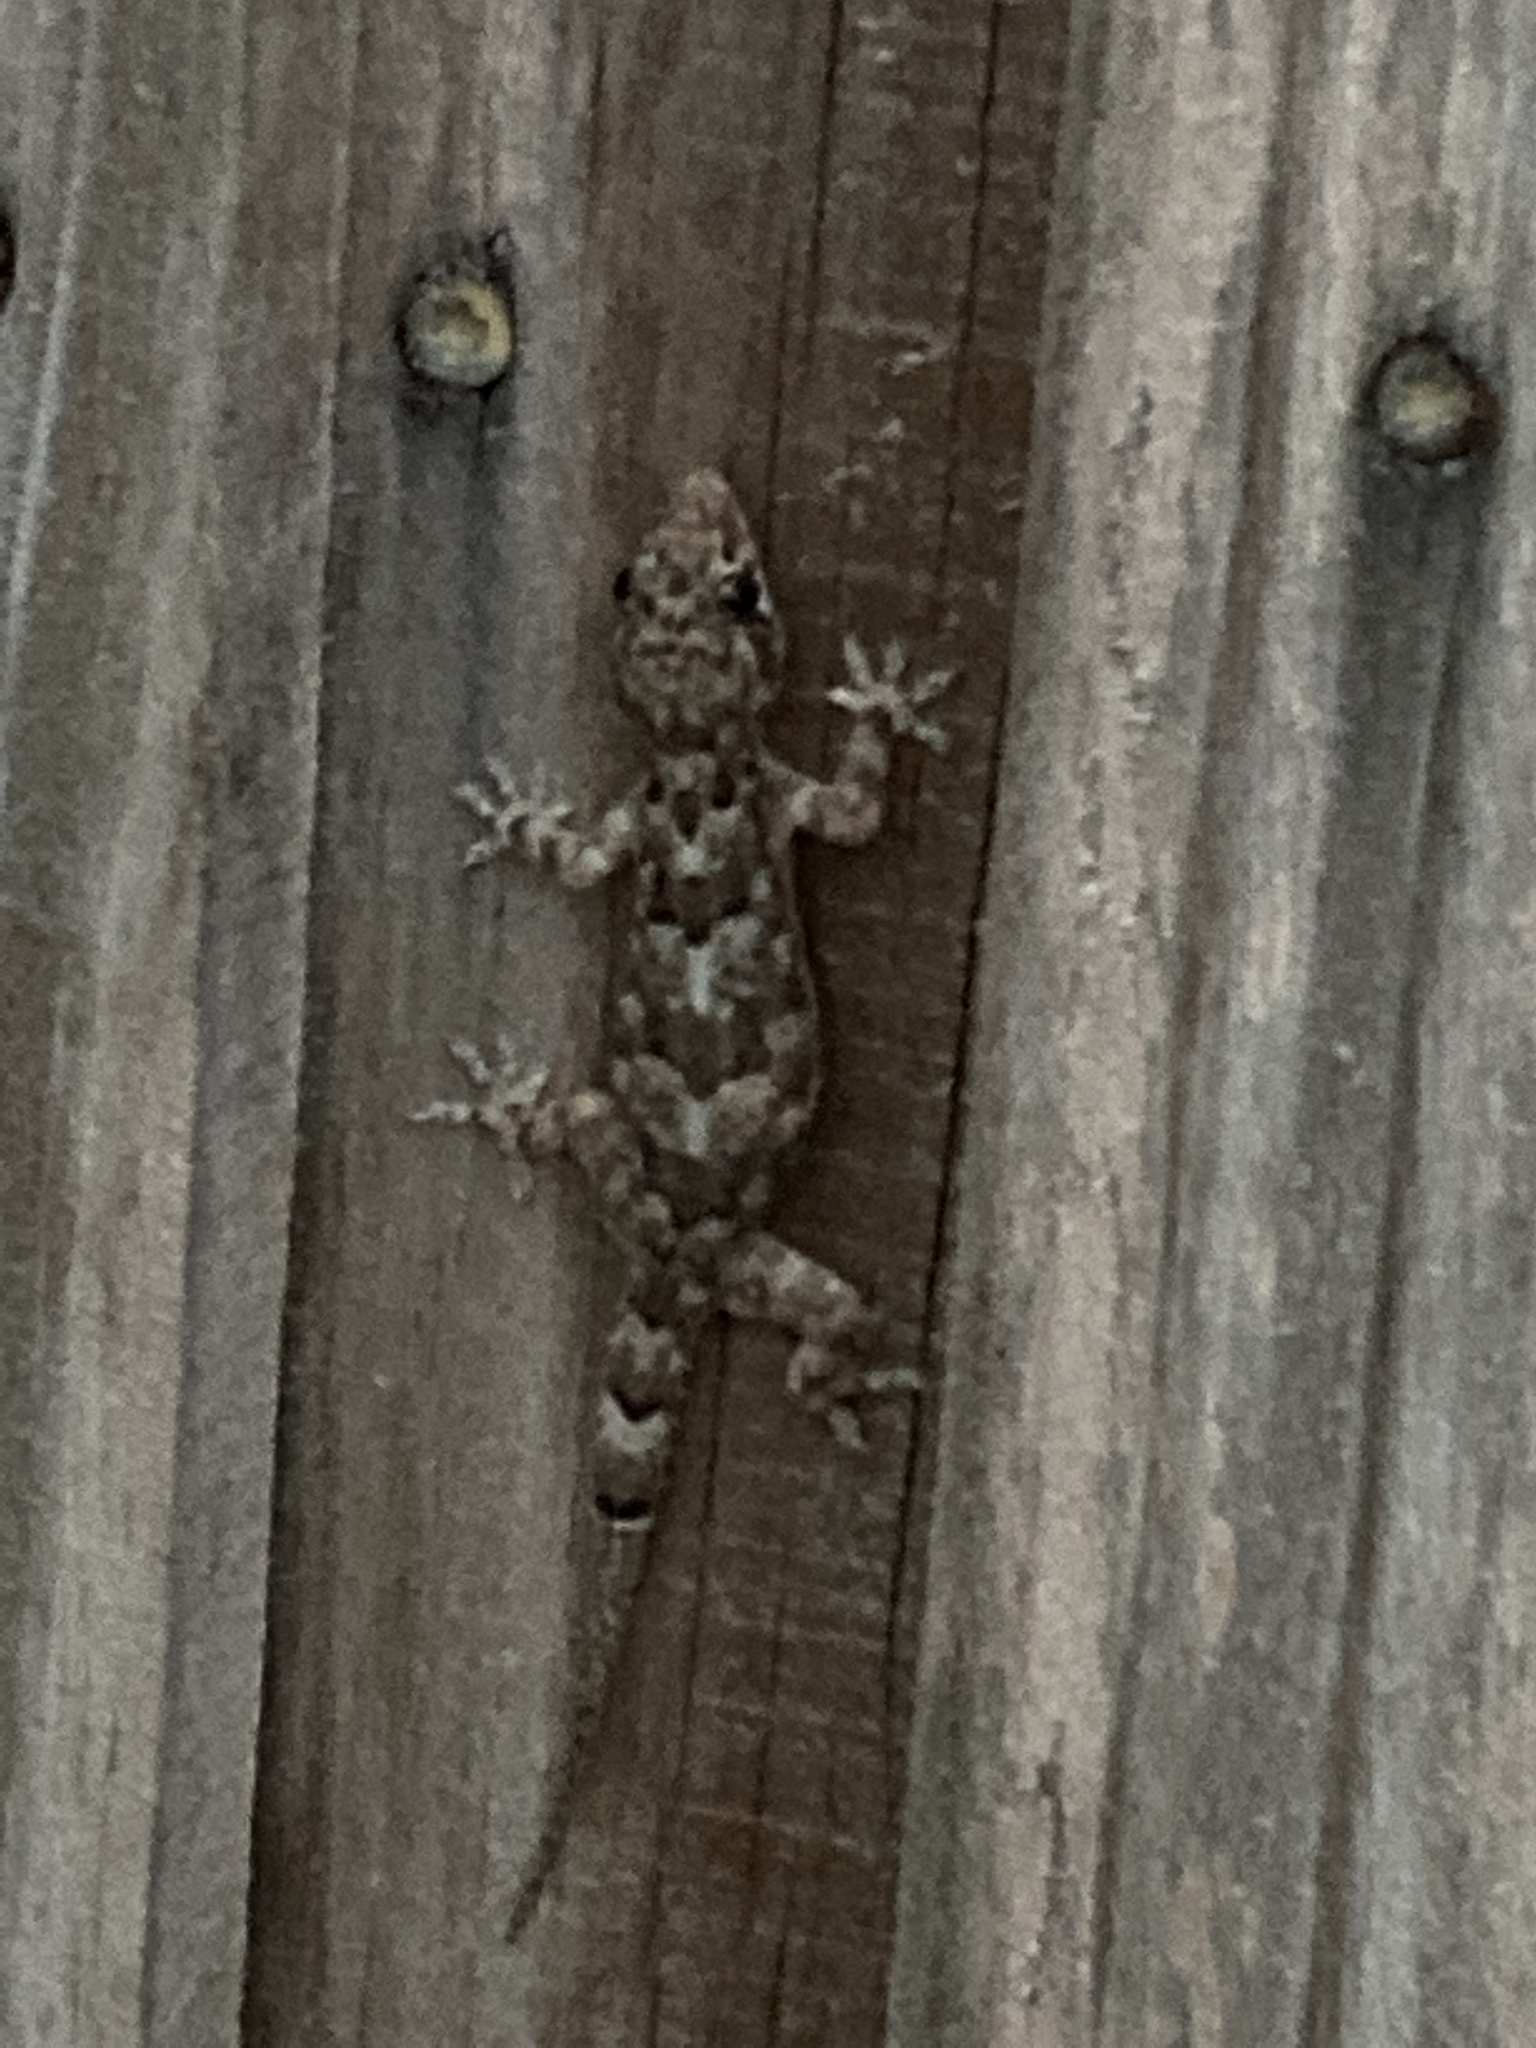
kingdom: Animalia
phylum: Chordata
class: Squamata
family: Gekkonidae
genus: Hemidactylus
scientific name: Hemidactylus mabouia
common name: House gecko
